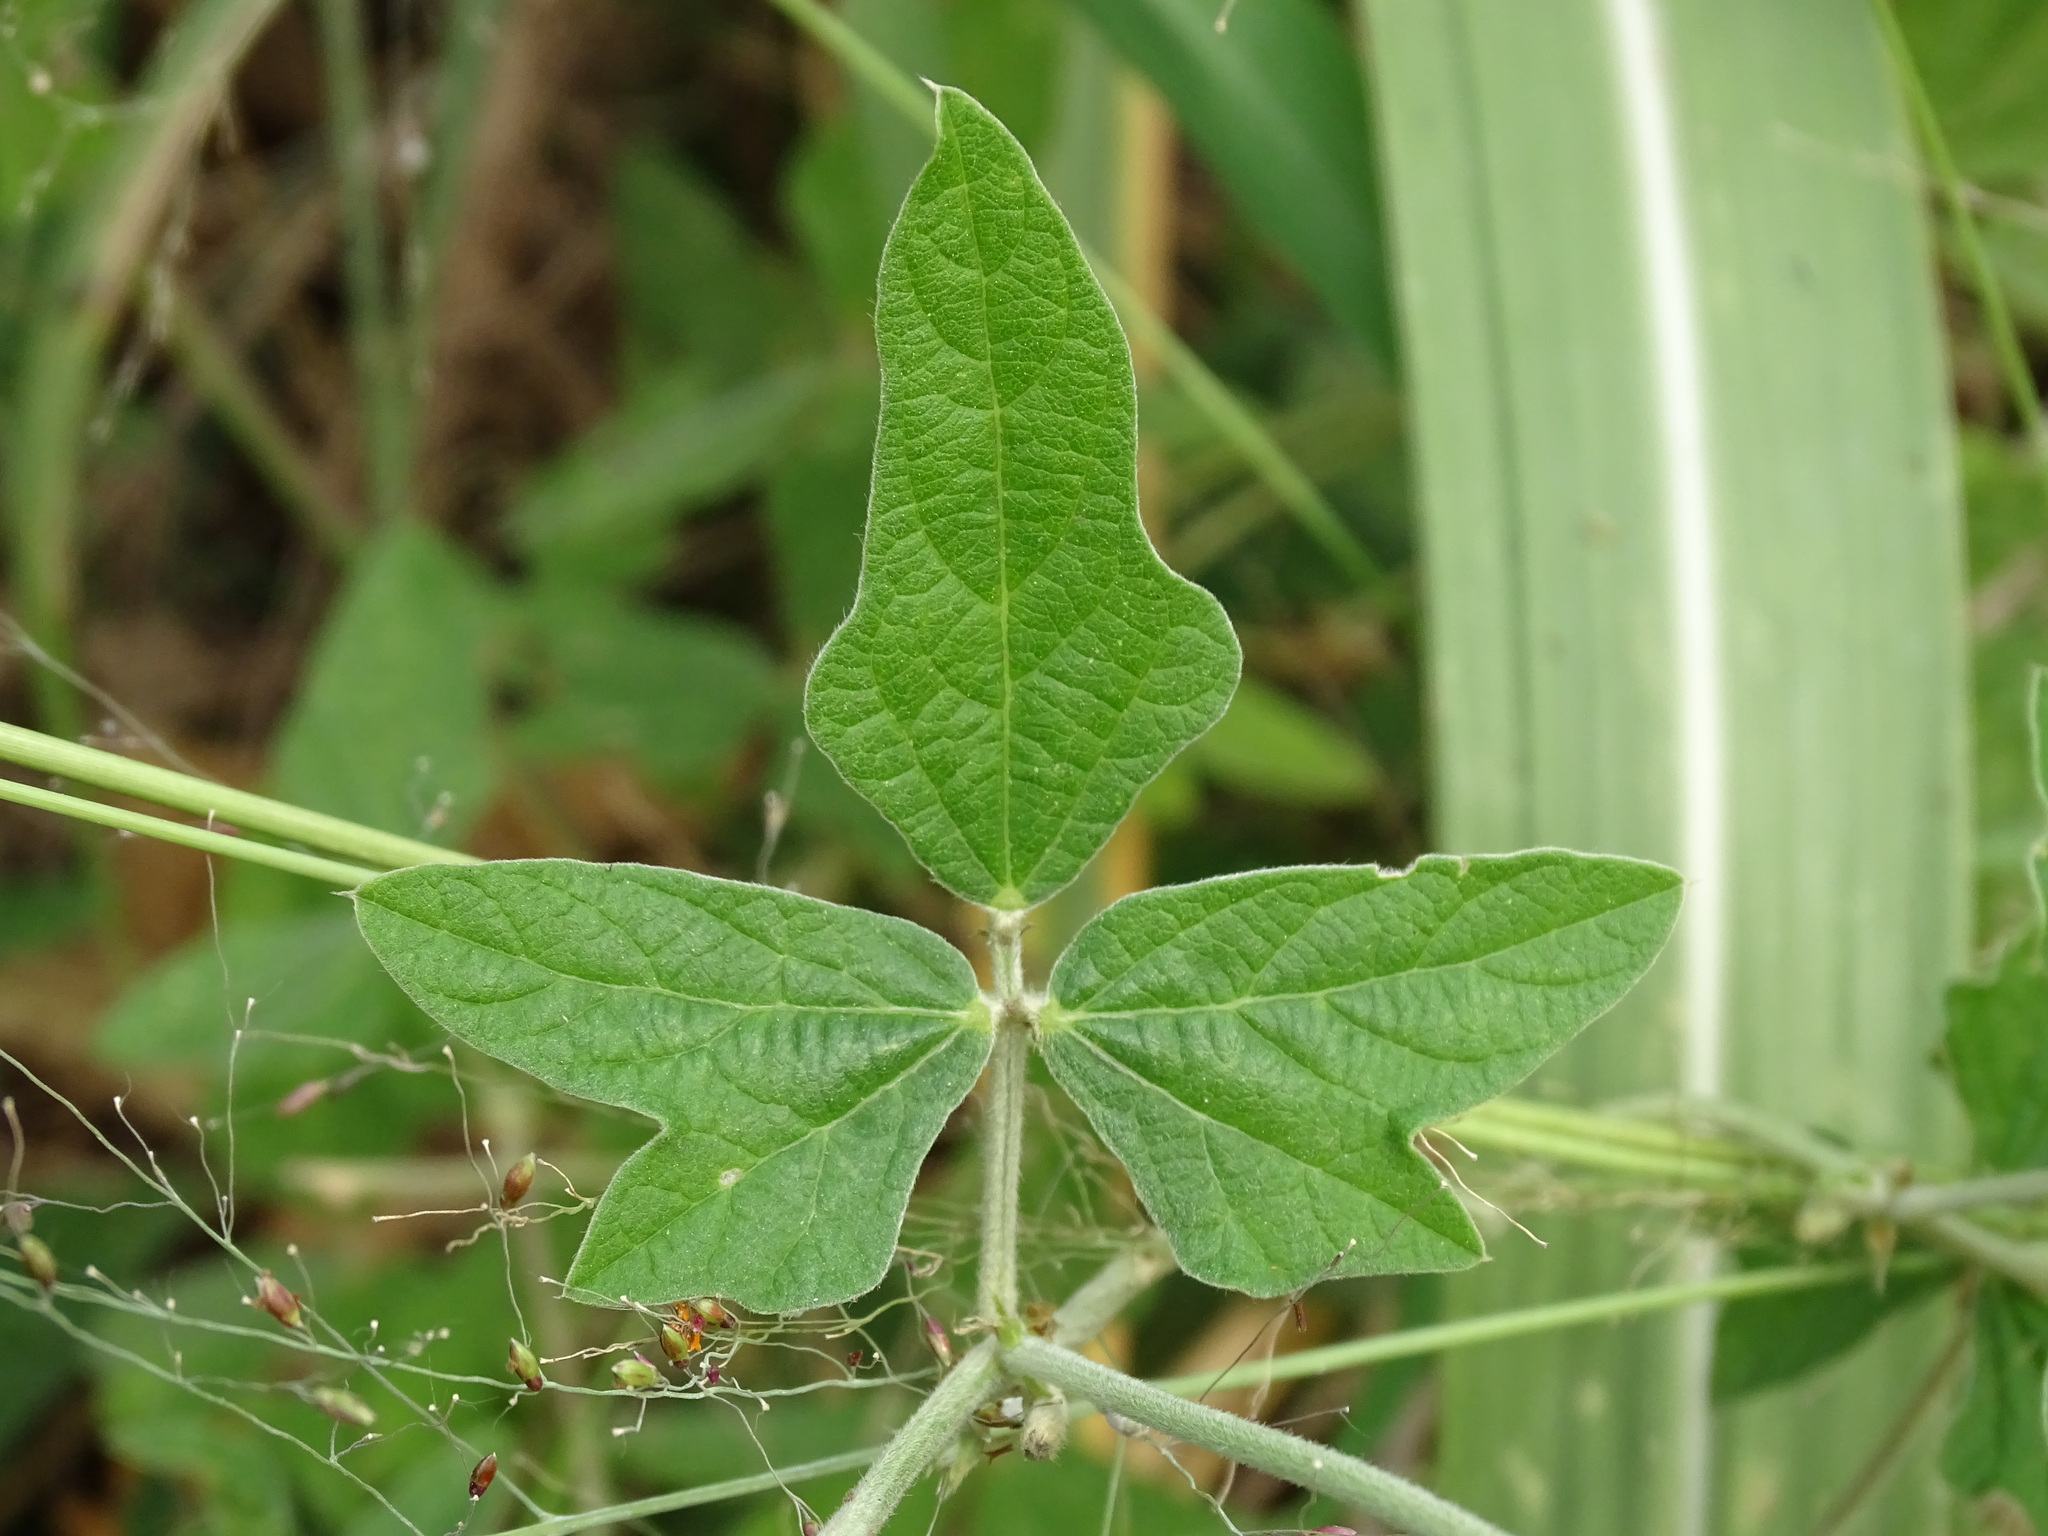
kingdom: Plantae
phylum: Tracheophyta
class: Magnoliopsida
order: Fabales
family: Fabaceae
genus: Macroptilium
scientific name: Macroptilium atropurpureum
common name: Purple bushbean
